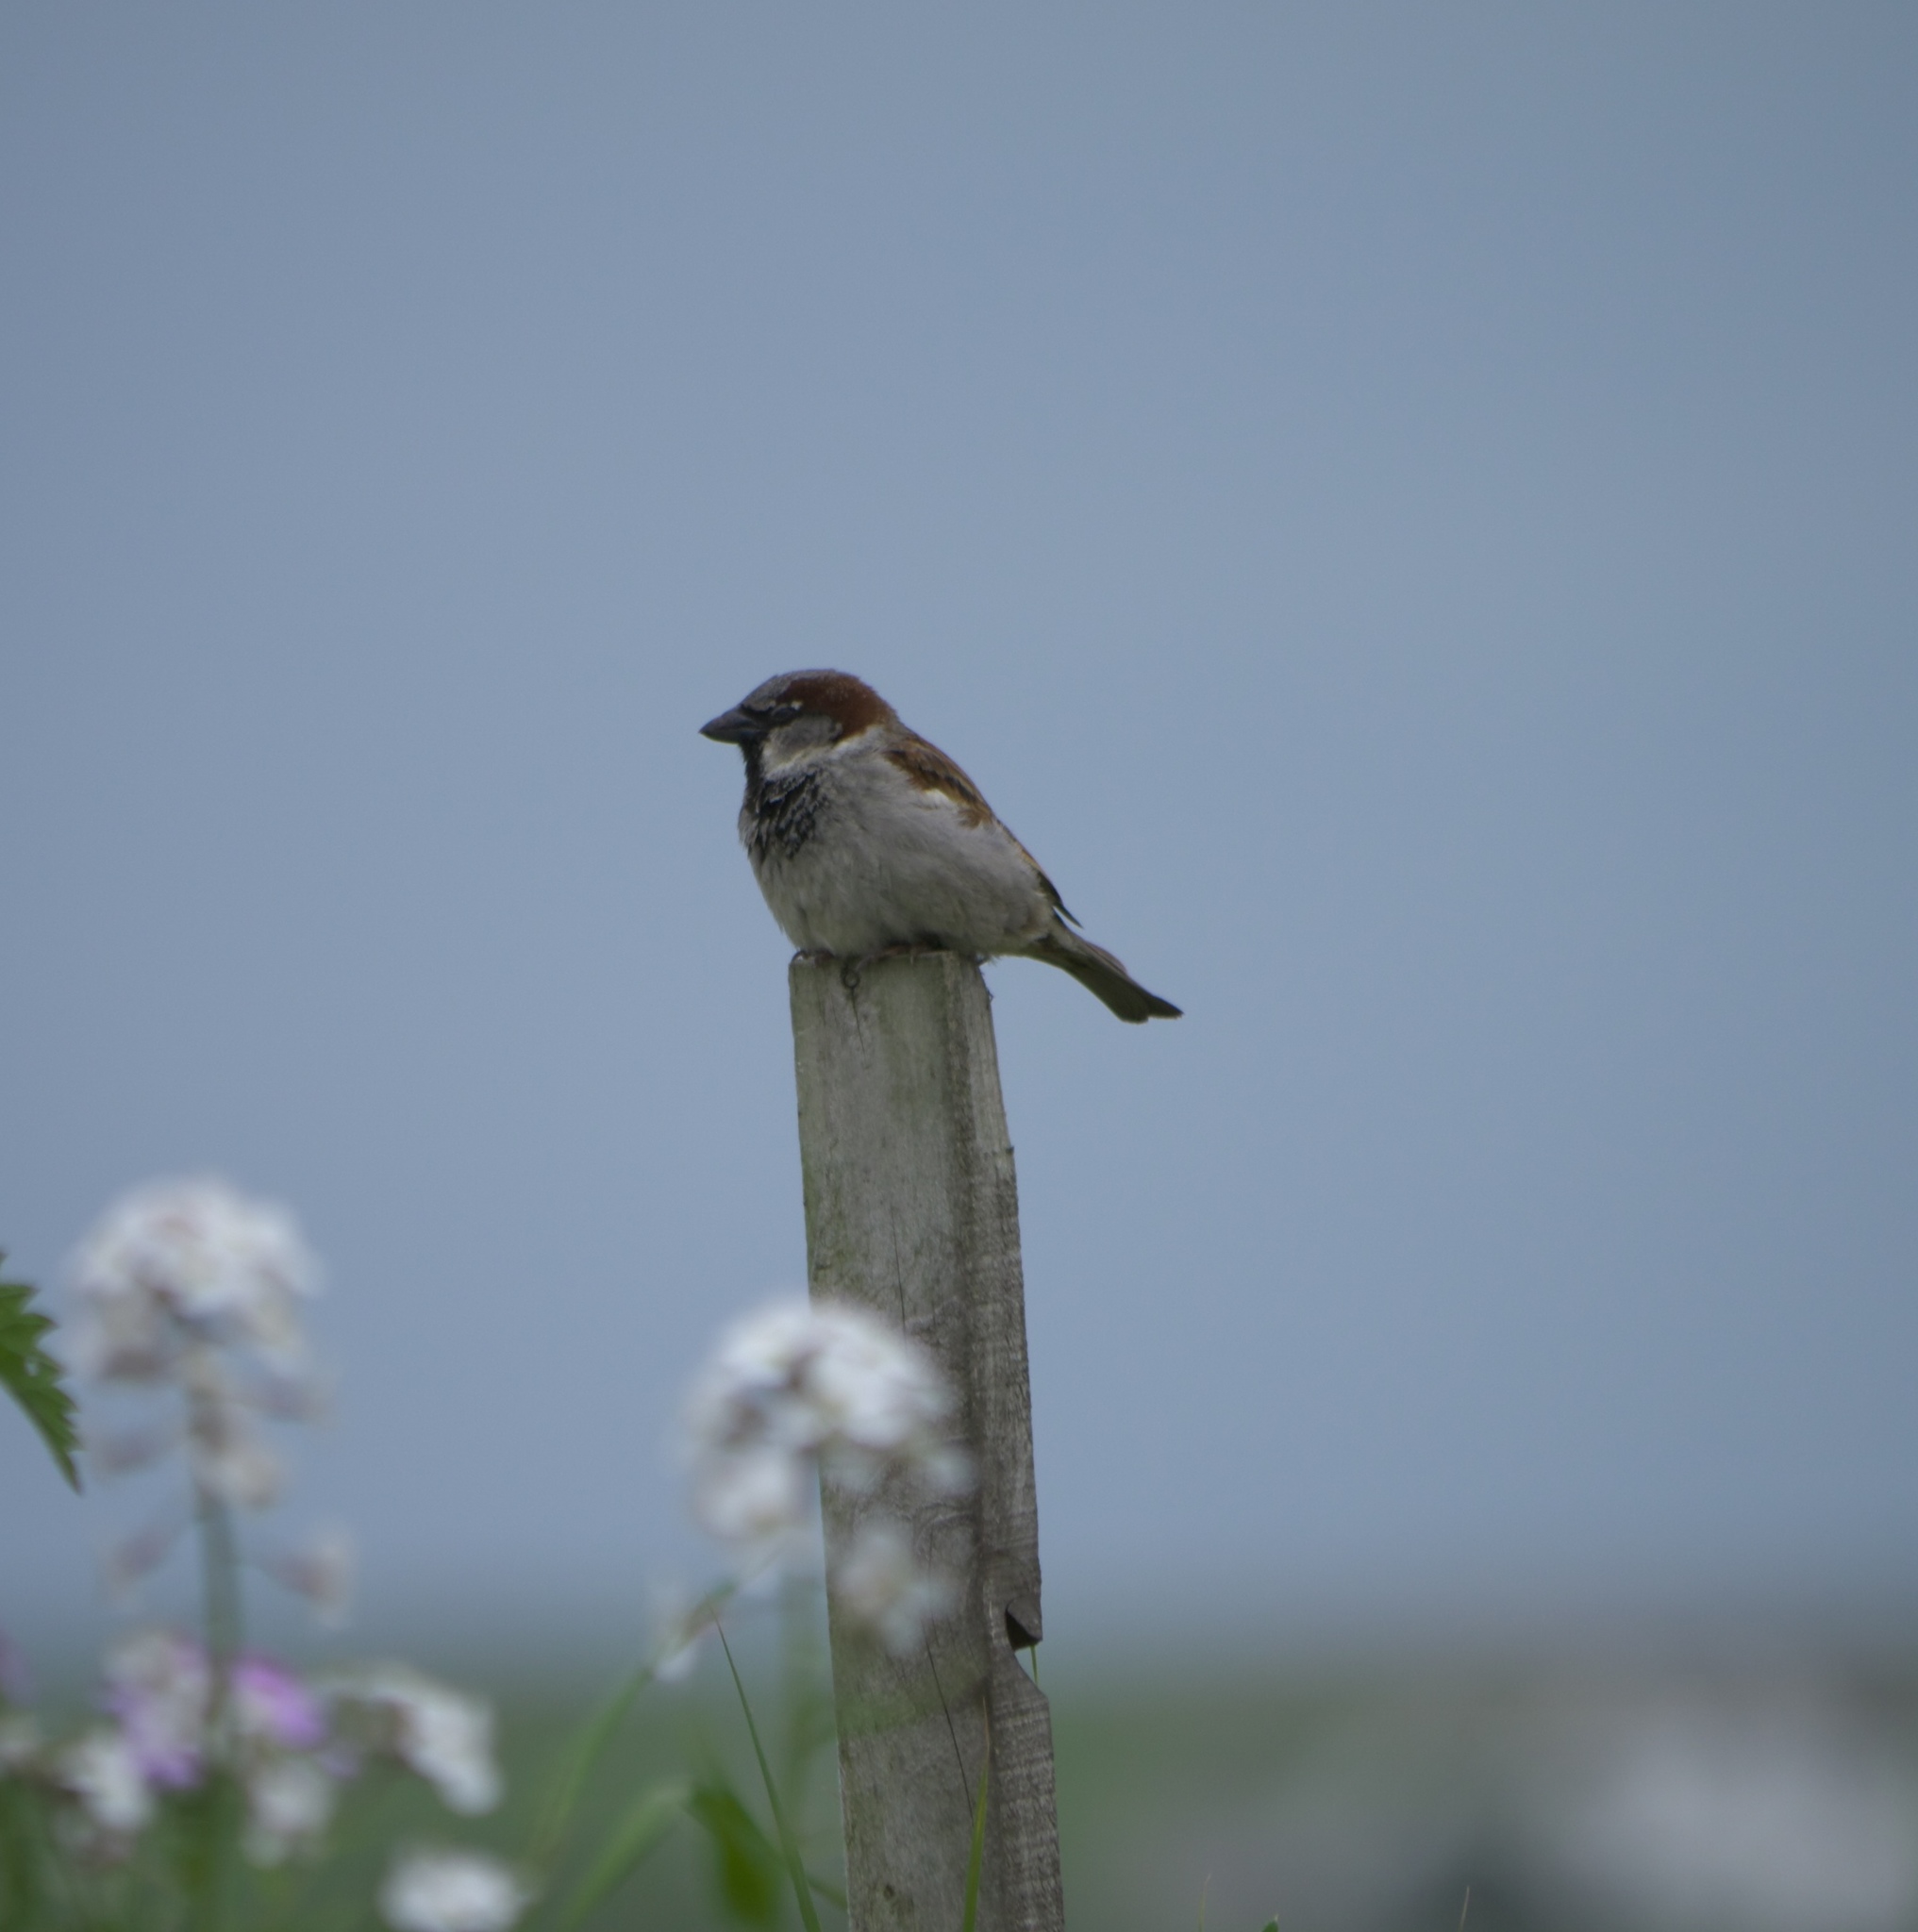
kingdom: Animalia
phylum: Chordata
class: Aves
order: Passeriformes
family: Passeridae
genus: Passer
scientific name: Passer domesticus
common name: House sparrow
